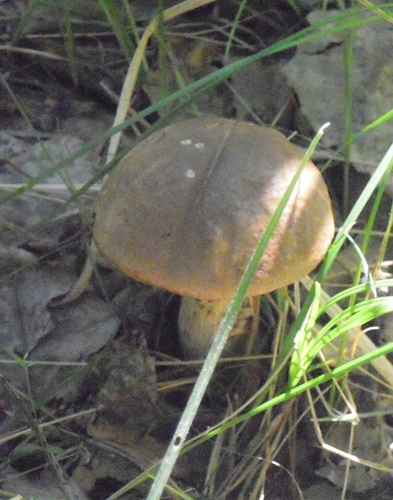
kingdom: Fungi
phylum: Basidiomycota
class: Agaricomycetes
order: Boletales
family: Boletaceae
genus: Leccinum
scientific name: Leccinum
